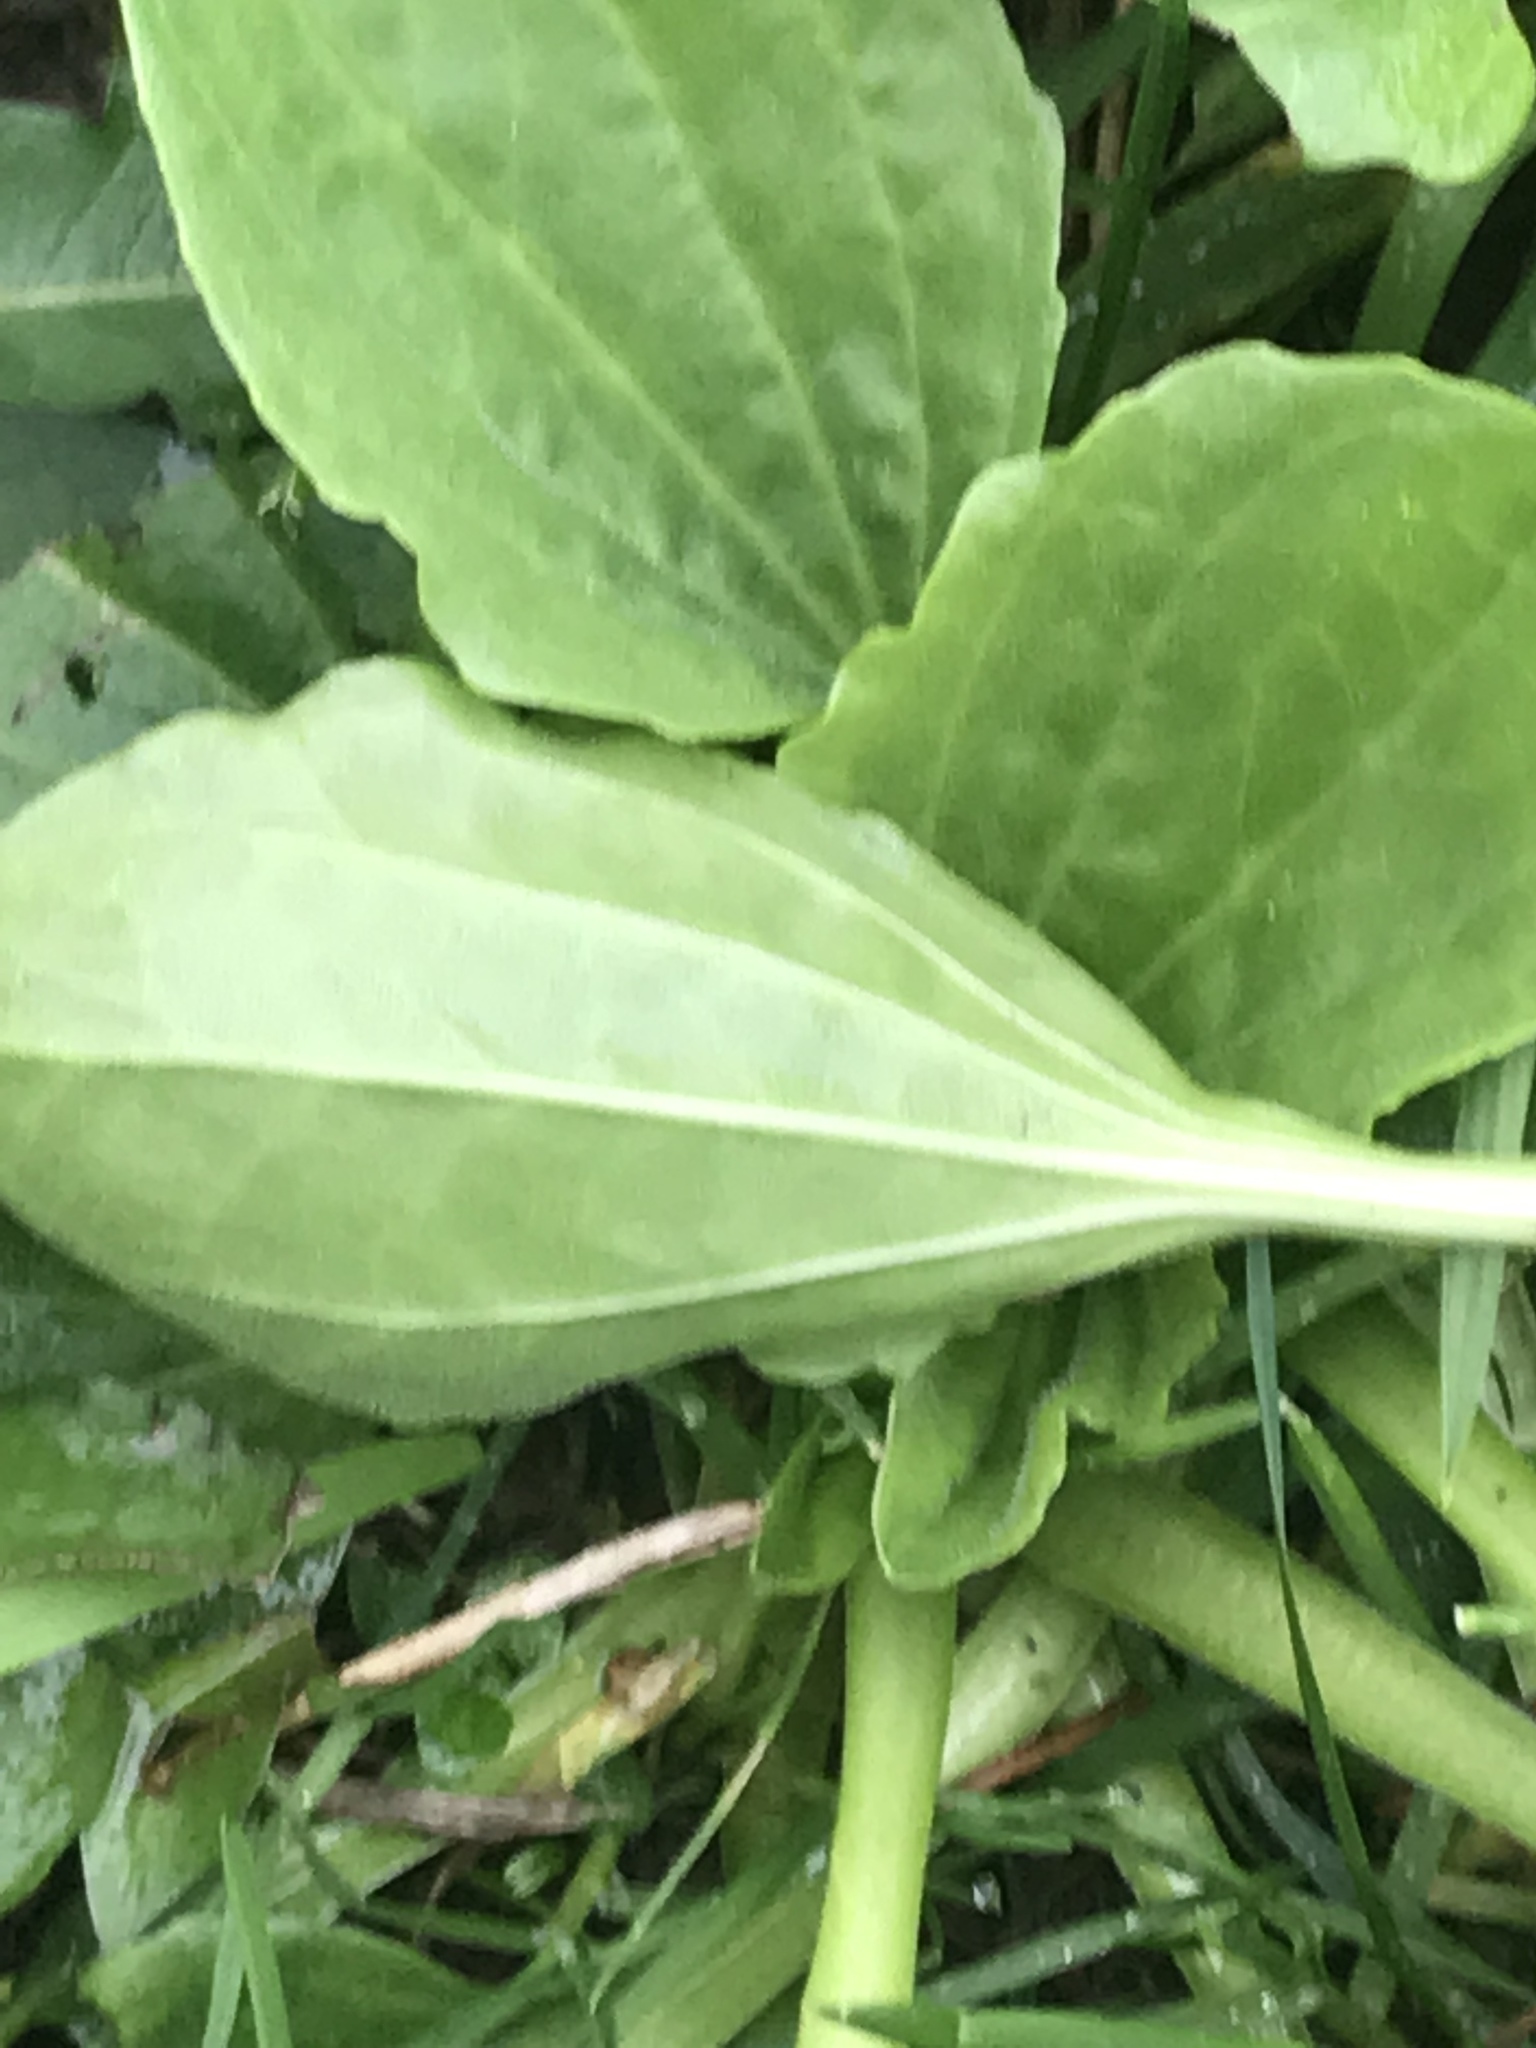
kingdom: Plantae
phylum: Tracheophyta
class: Magnoliopsida
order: Lamiales
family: Plantaginaceae
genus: Plantago
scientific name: Plantago major
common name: Common plantain
